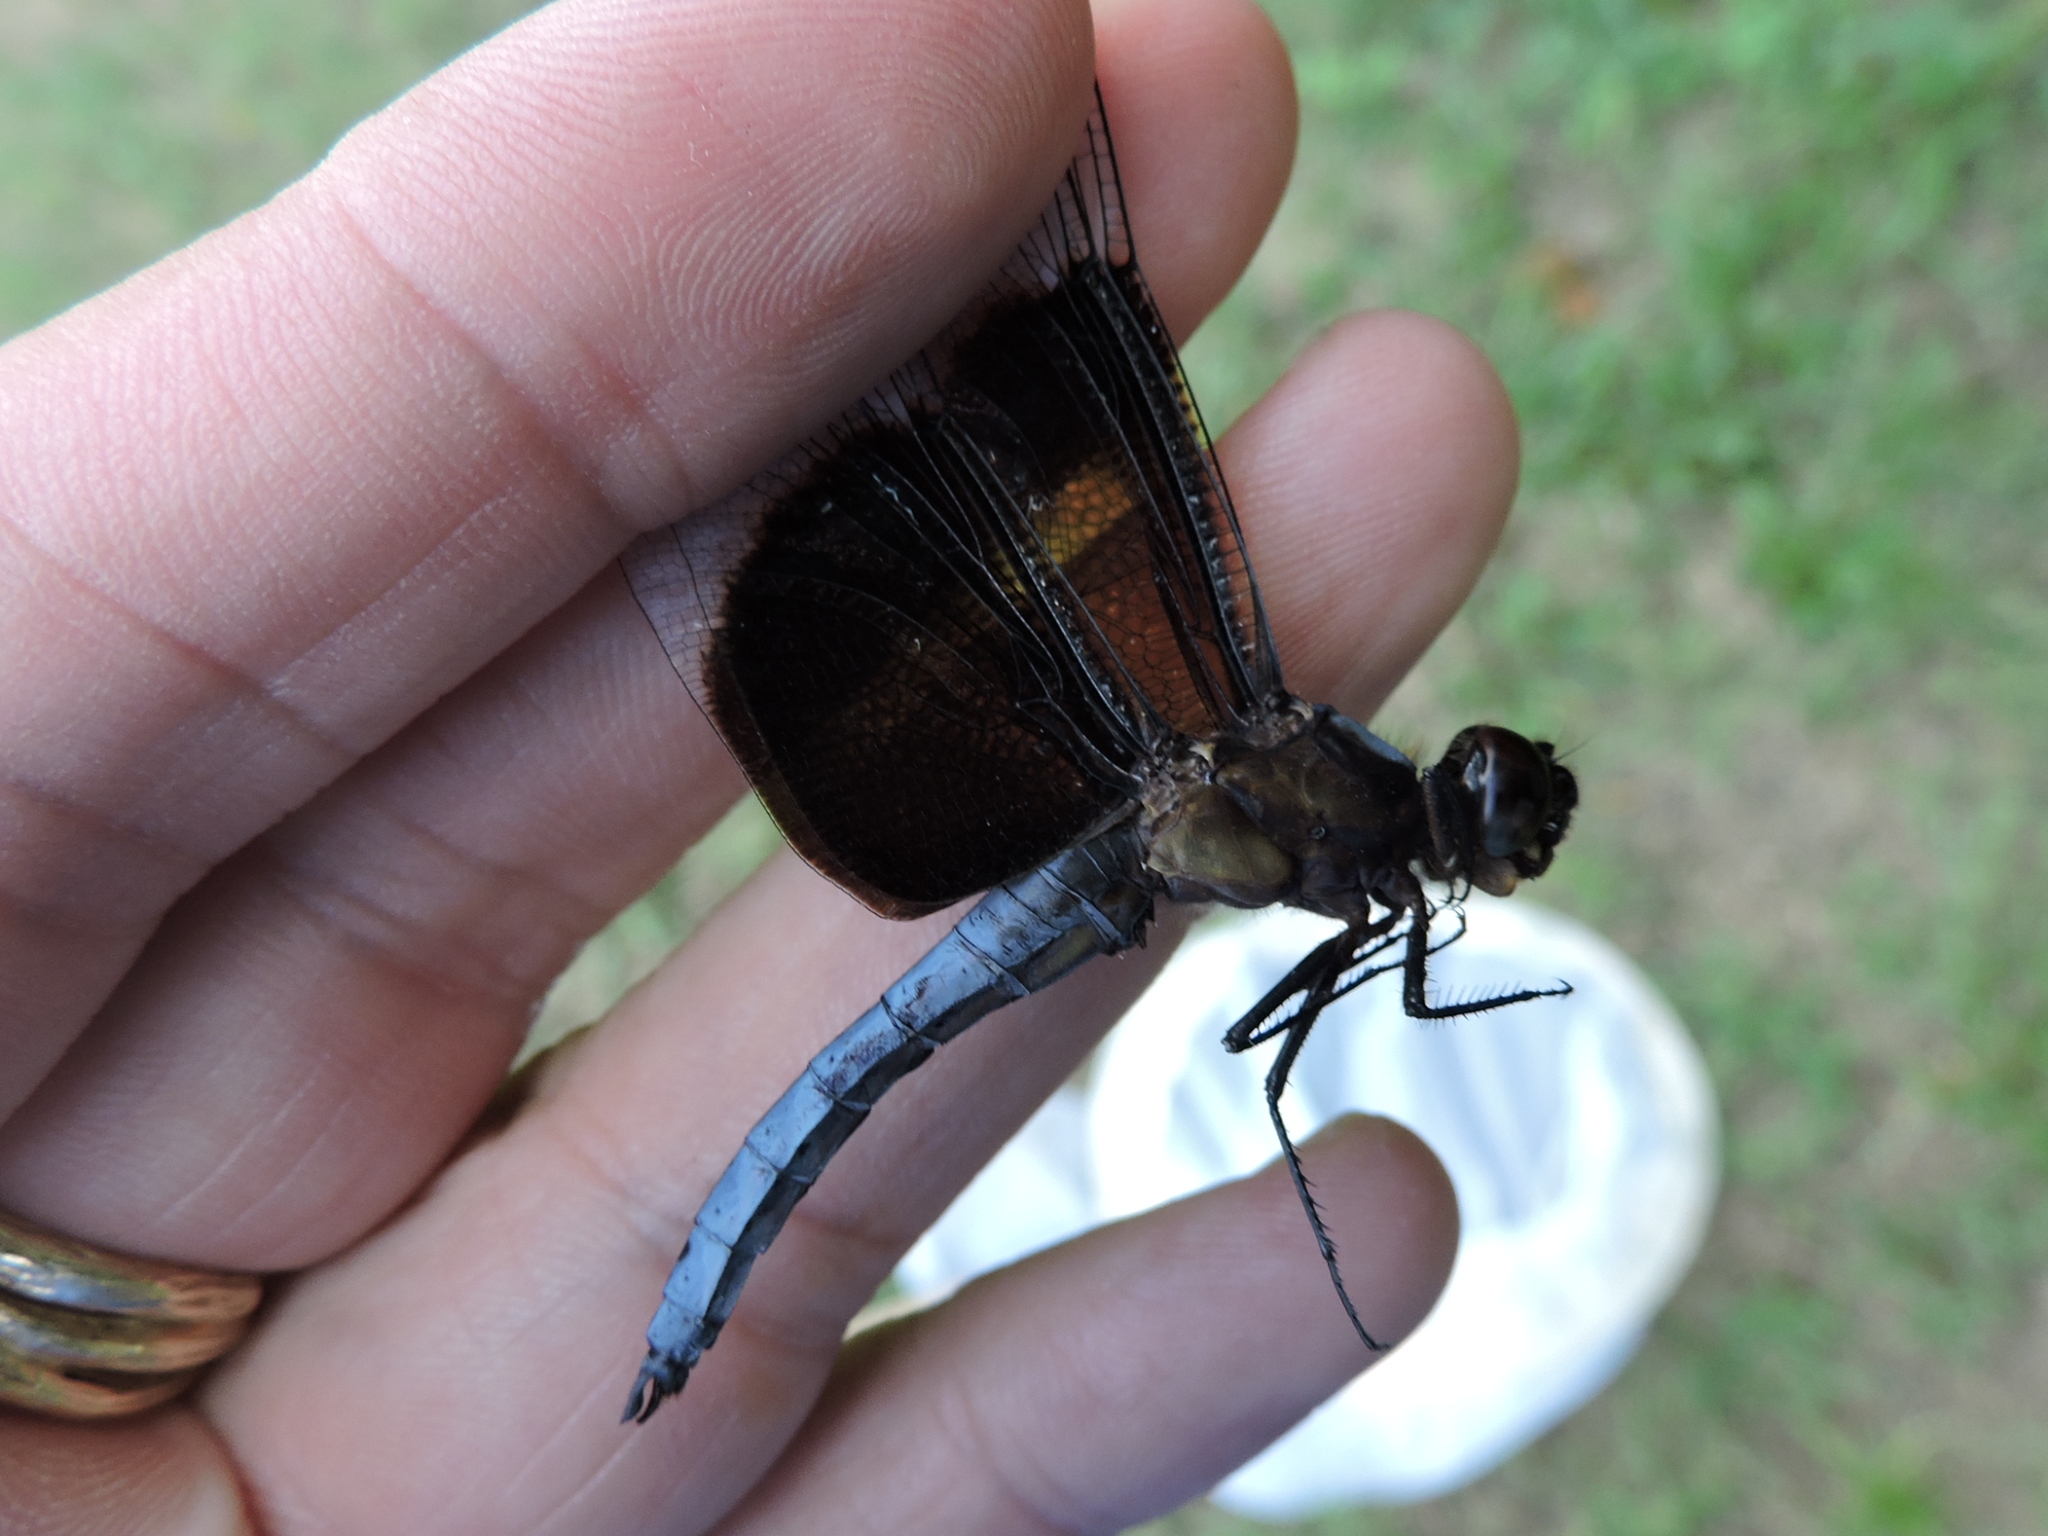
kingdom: Animalia
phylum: Arthropoda
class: Insecta
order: Odonata
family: Libellulidae
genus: Libellula
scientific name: Libellula luctuosa
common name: Widow skimmer
